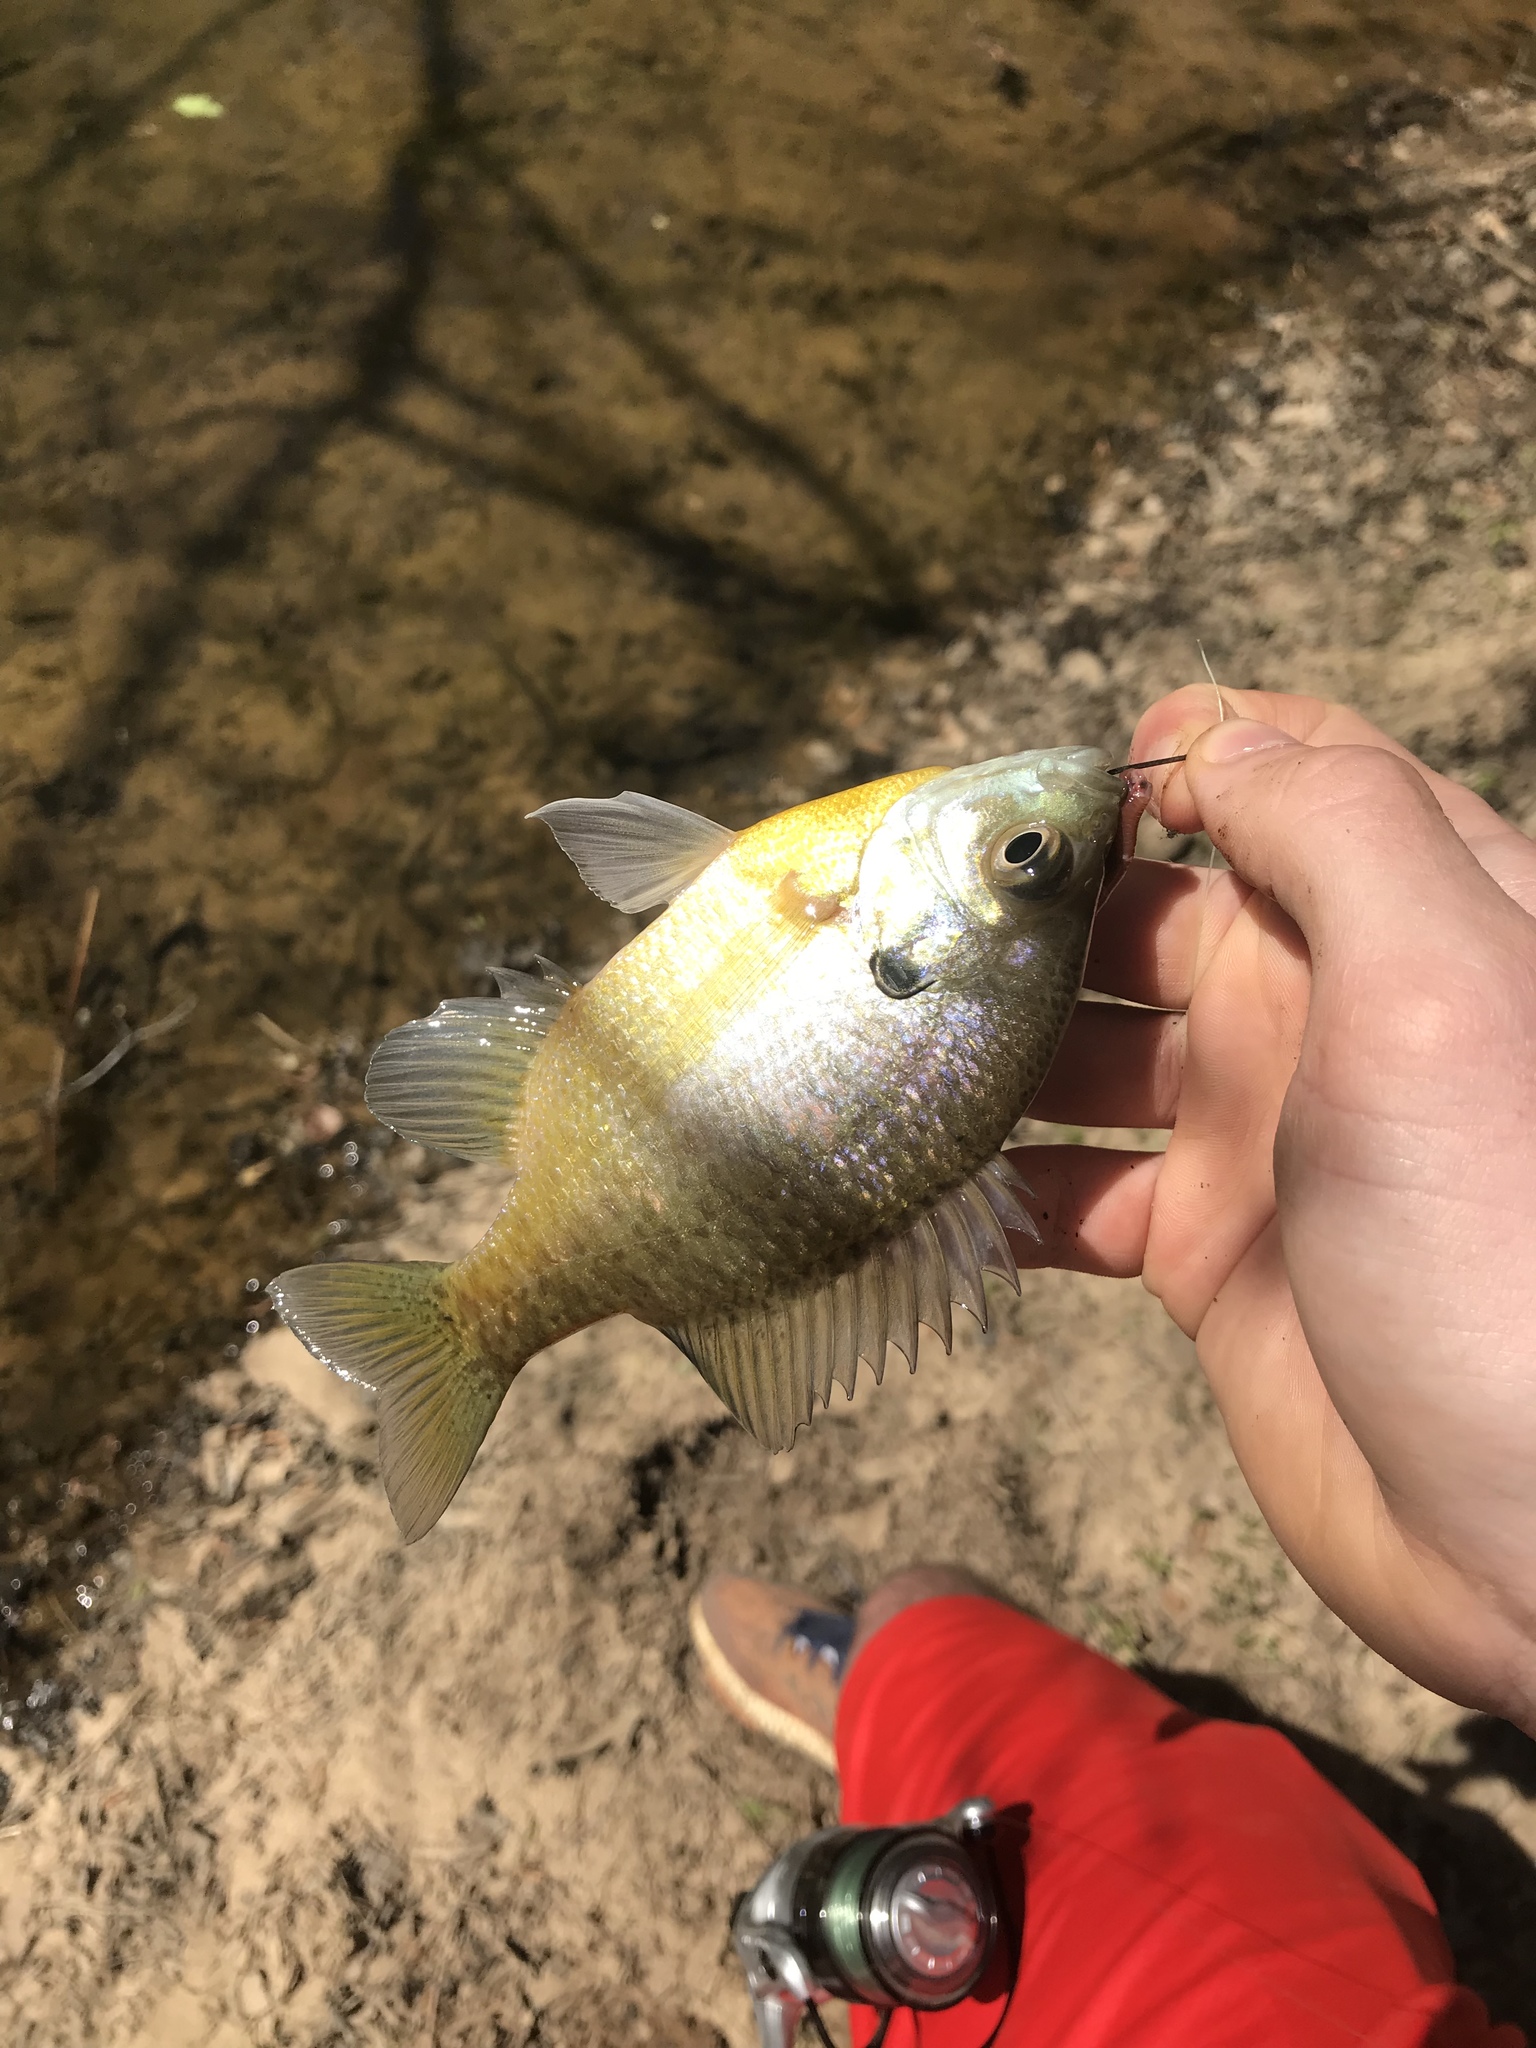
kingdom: Animalia
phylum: Chordata
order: Perciformes
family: Centrarchidae
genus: Lepomis
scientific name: Lepomis macrochirus
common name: Bluegill
